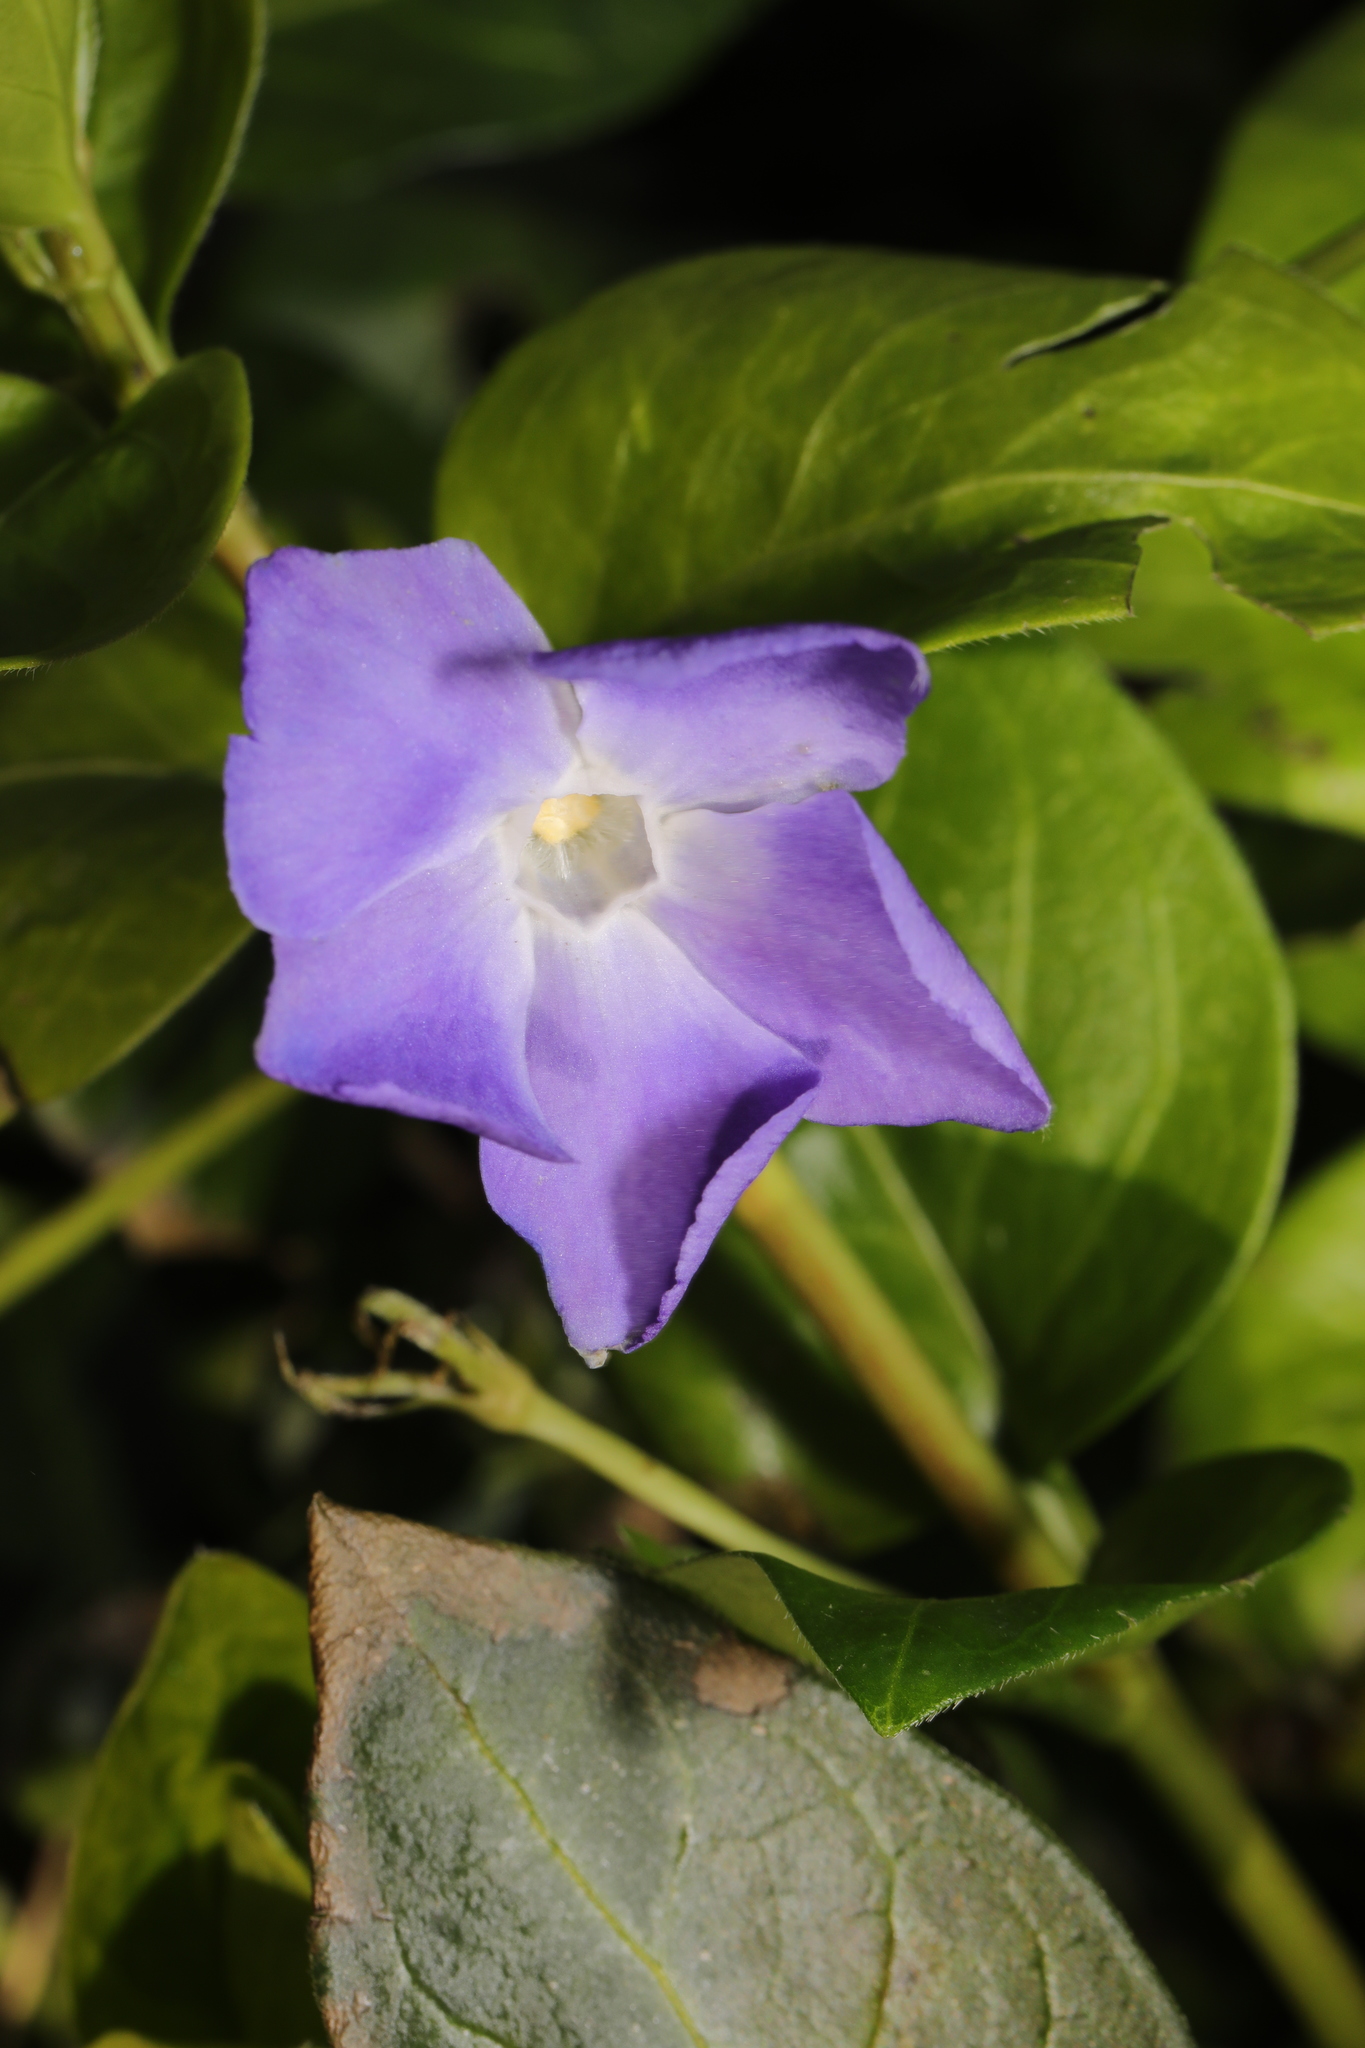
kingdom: Plantae
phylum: Tracheophyta
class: Magnoliopsida
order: Gentianales
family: Apocynaceae
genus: Vinca
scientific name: Vinca major
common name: Greater periwinkle
